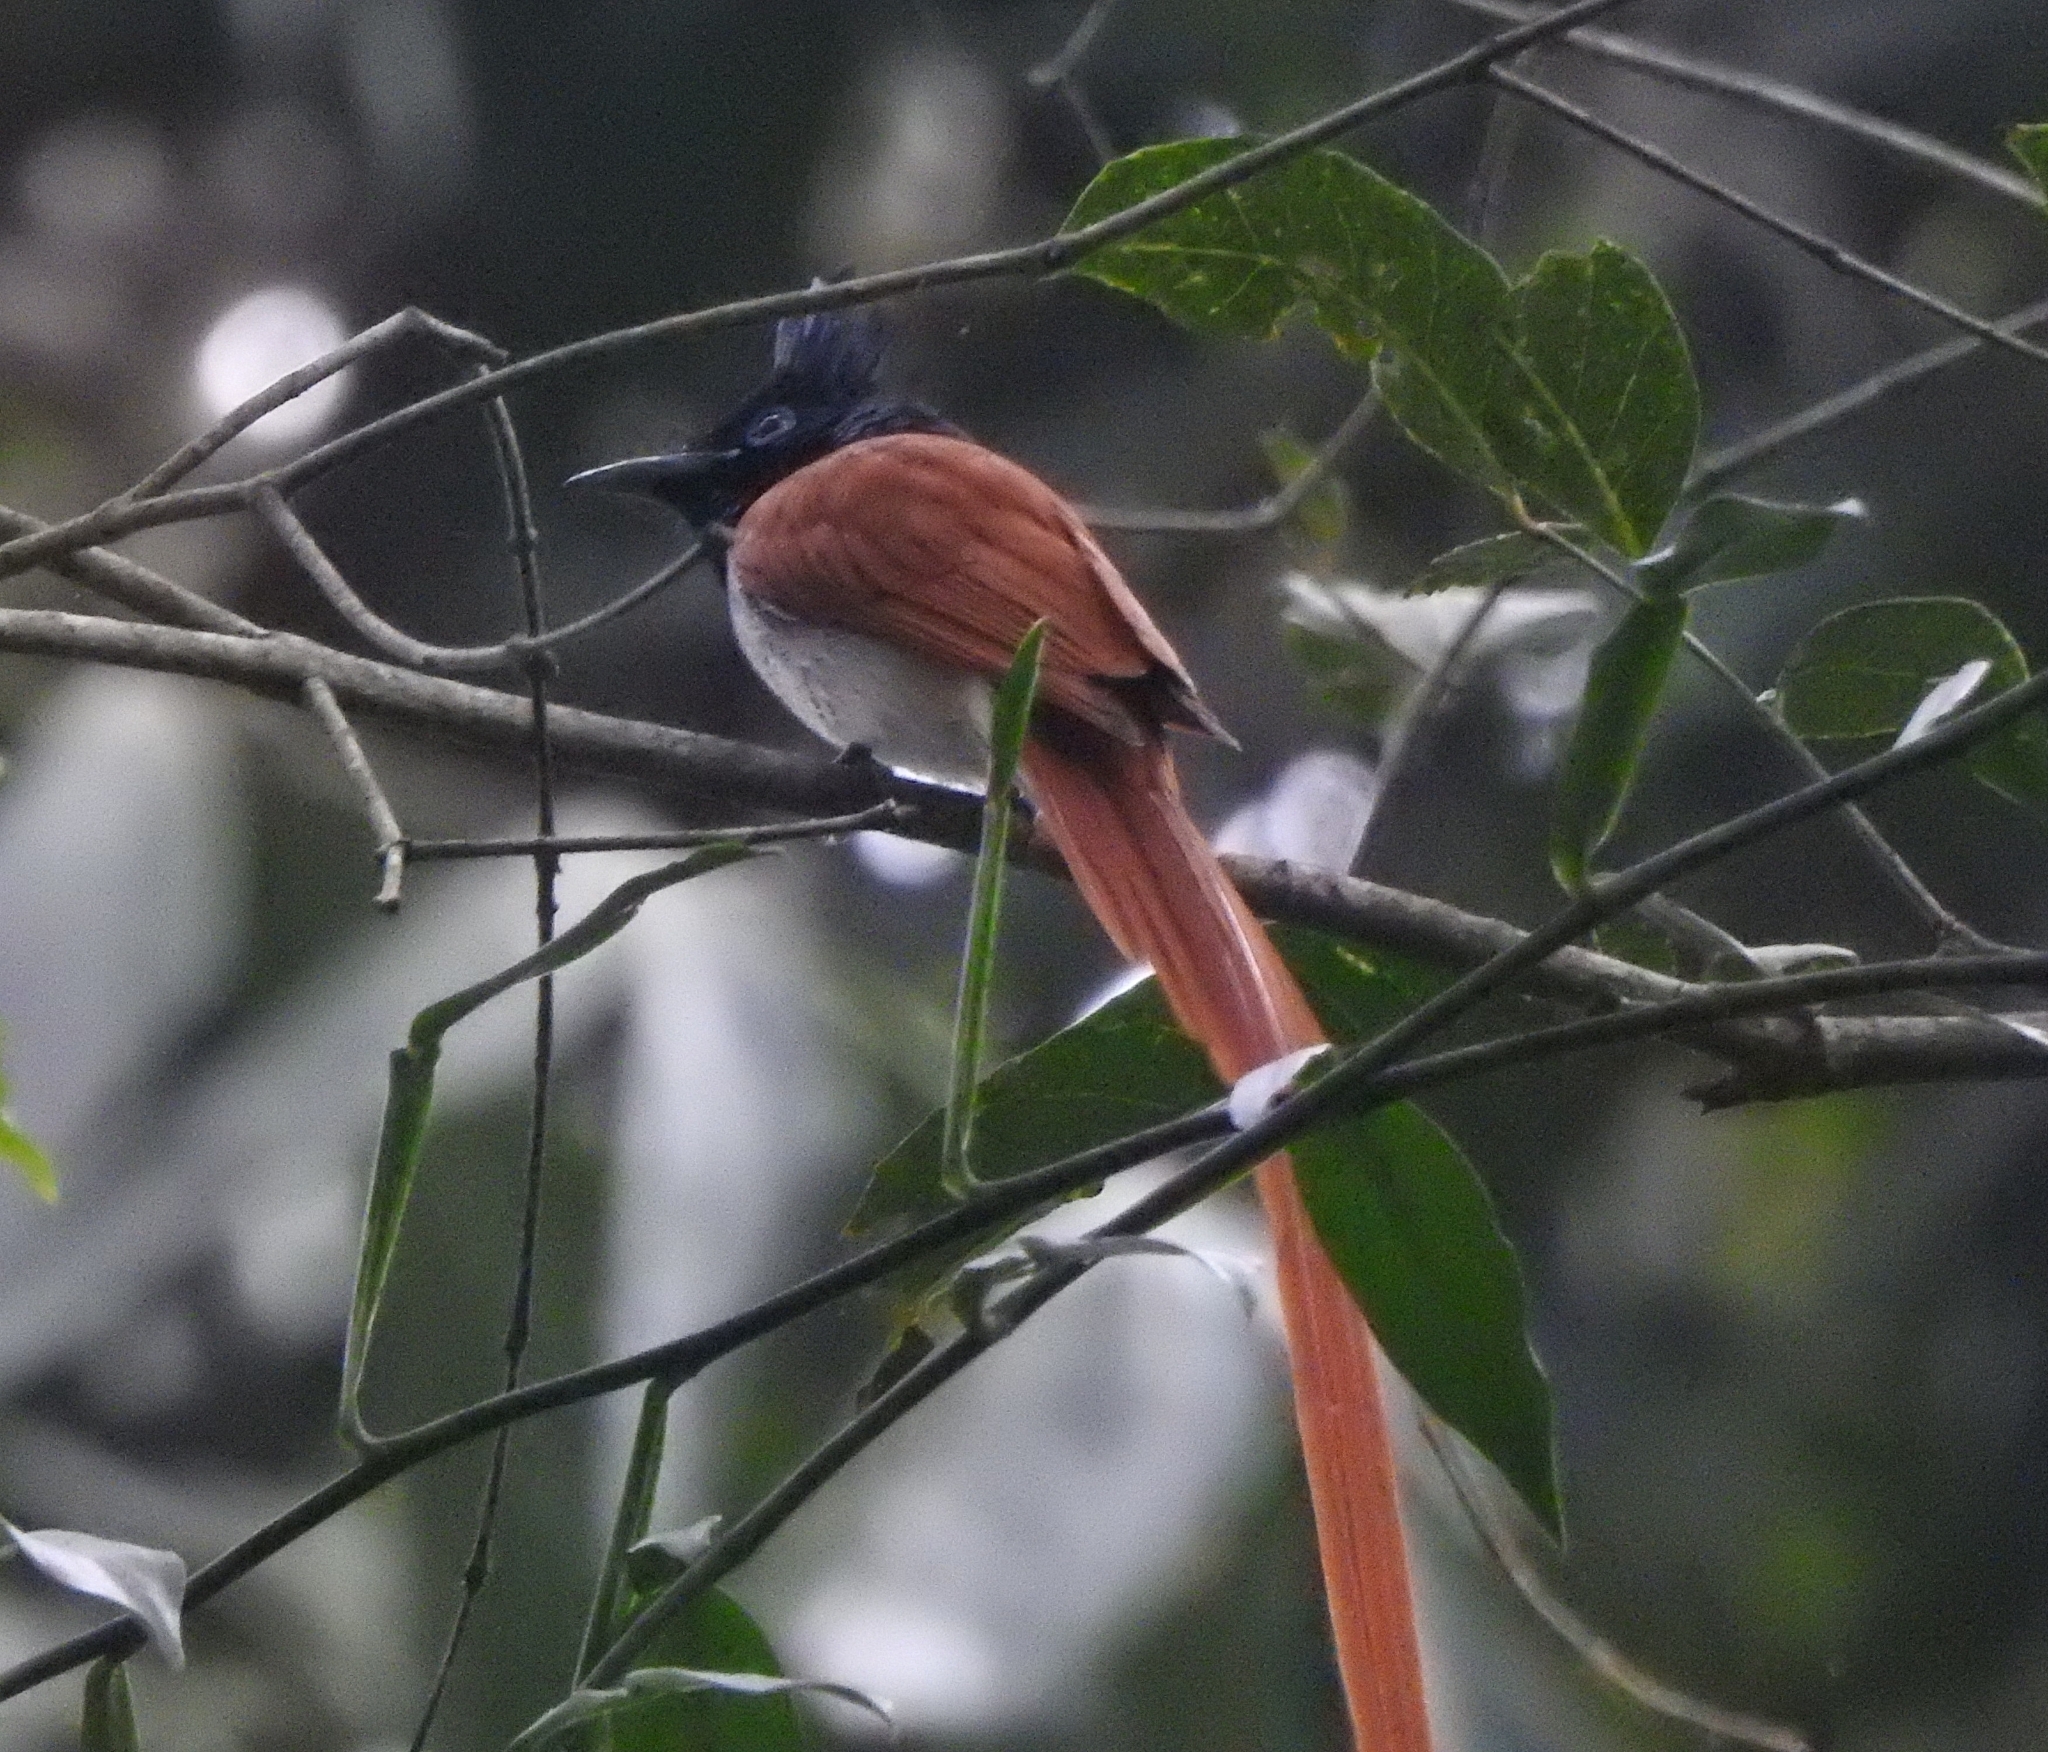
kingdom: Animalia
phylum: Chordata
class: Aves
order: Passeriformes
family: Monarchidae
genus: Terpsiphone
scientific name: Terpsiphone paradisi
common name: Indian paradise flycatcher
